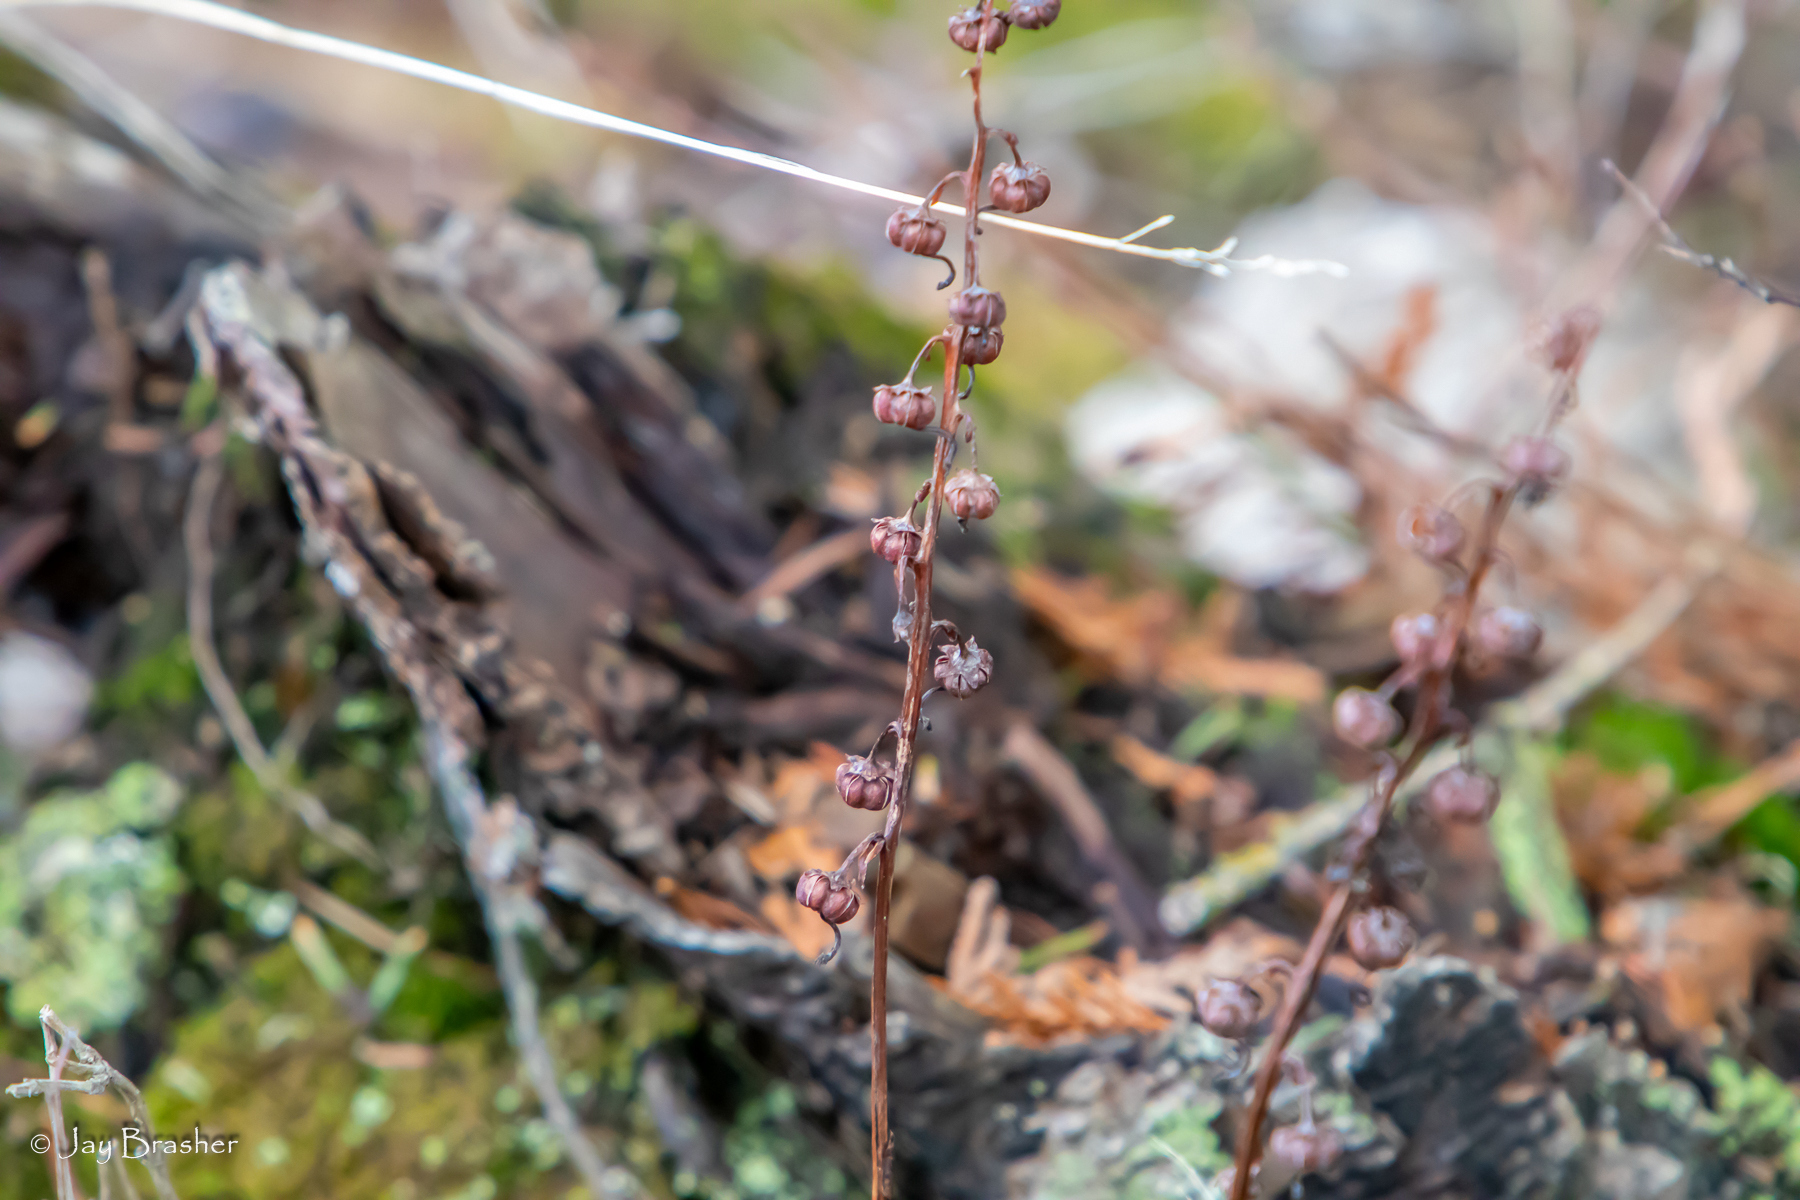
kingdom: Plantae
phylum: Tracheophyta
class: Magnoliopsida
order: Ericales
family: Ericaceae
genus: Pyrola
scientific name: Pyrola asarifolia
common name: Bog wintergreen
